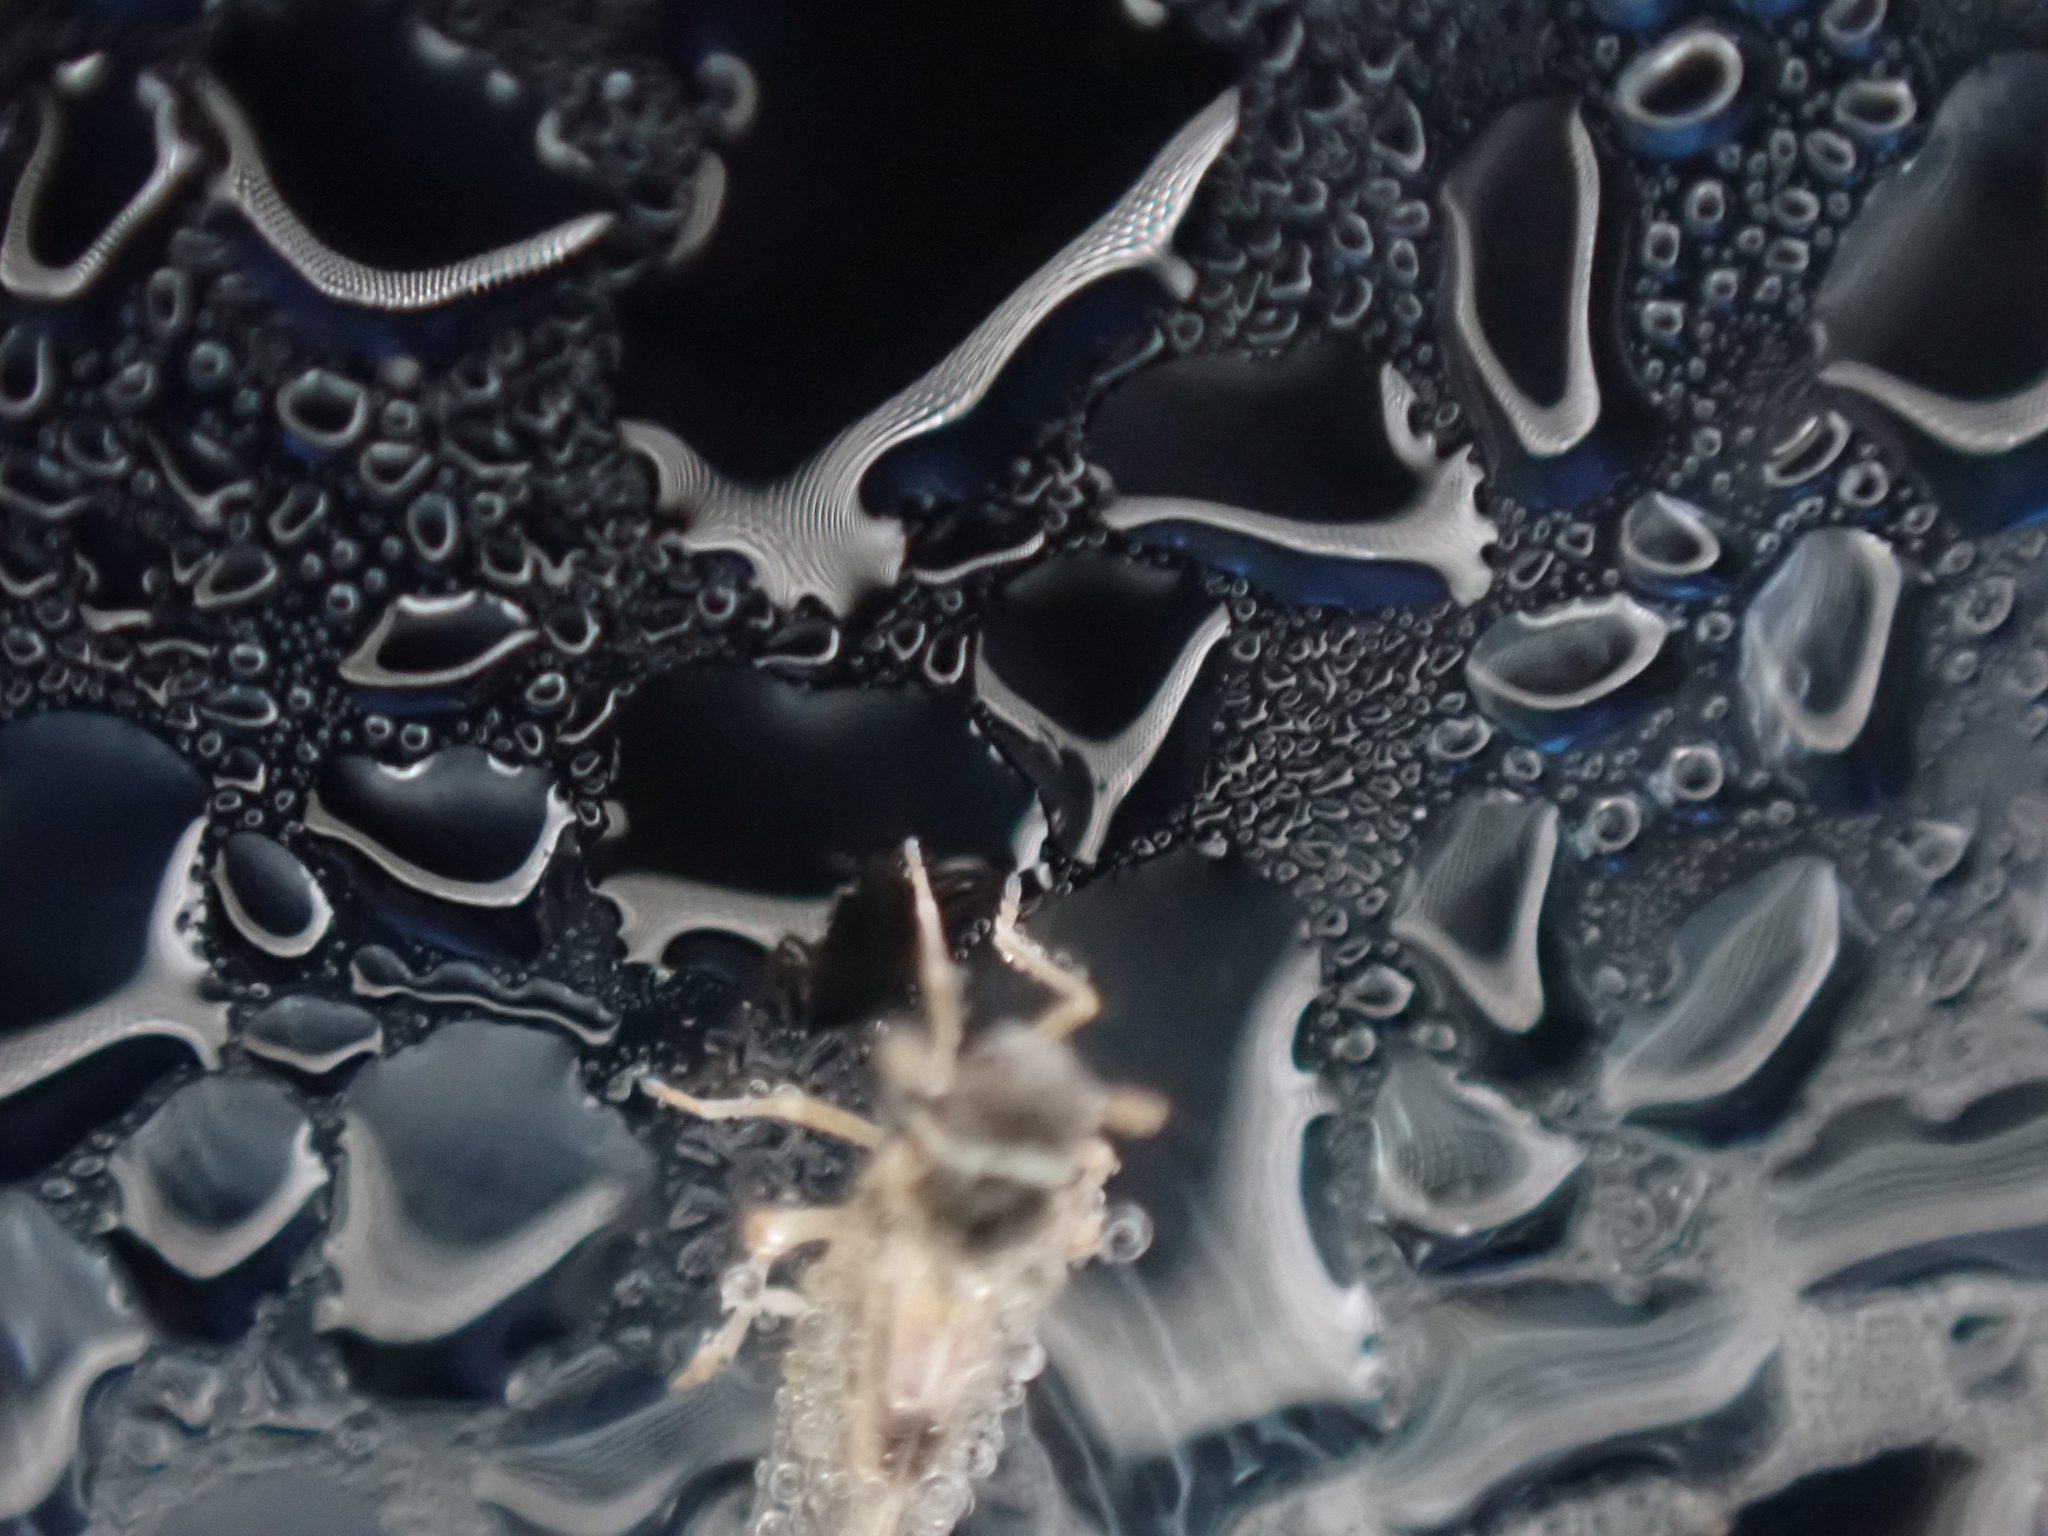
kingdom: Animalia
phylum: Arthropoda
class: Insecta
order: Hemiptera
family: Delphacidae
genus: Chionomus
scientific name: Chionomus
